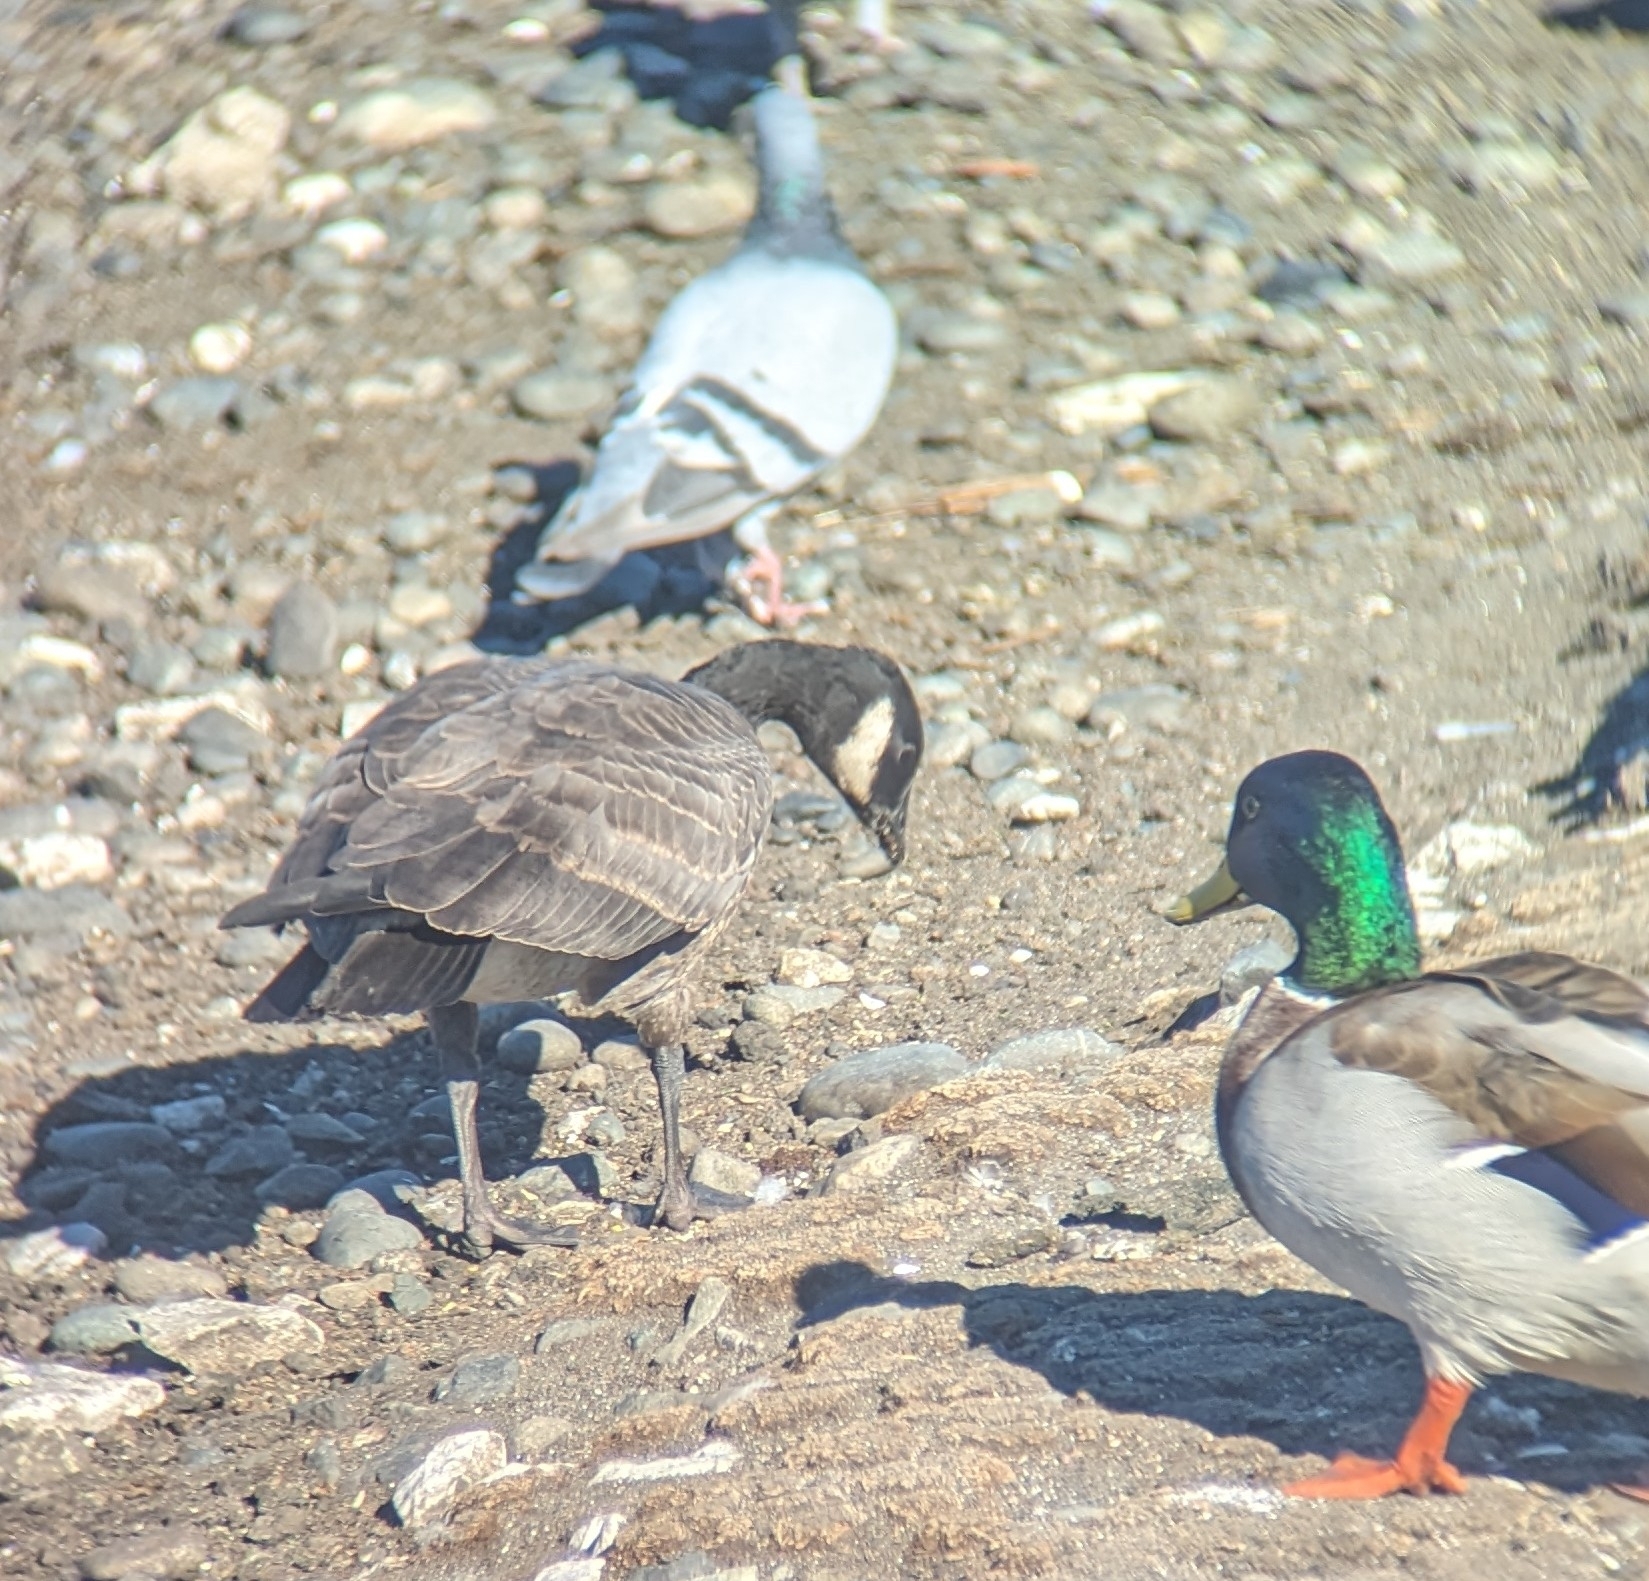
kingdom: Animalia
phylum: Chordata
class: Aves
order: Anseriformes
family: Anatidae
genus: Branta
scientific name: Branta hutchinsii
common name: Cackling goose
